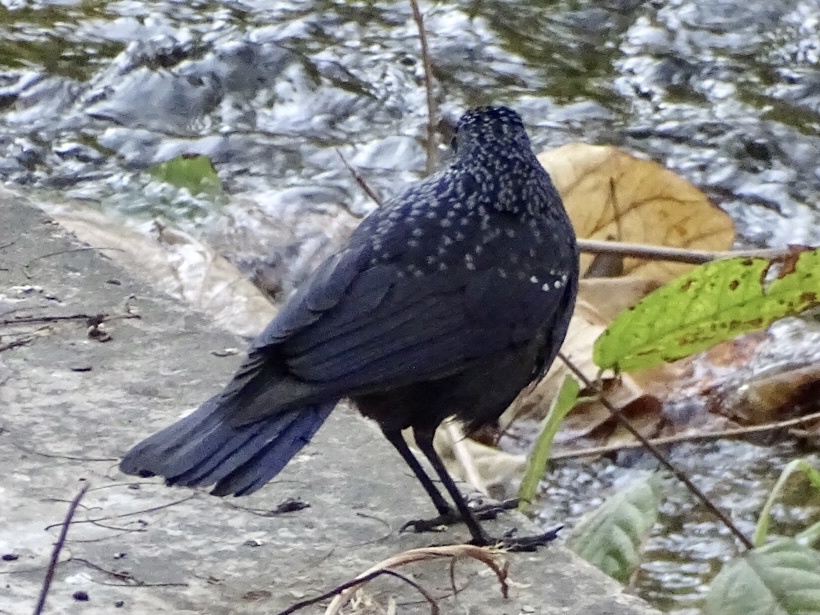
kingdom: Animalia
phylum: Chordata
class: Aves
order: Passeriformes
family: Muscicapidae
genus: Myophonus
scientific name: Myophonus caeruleus
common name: Blue whistling-thrush
